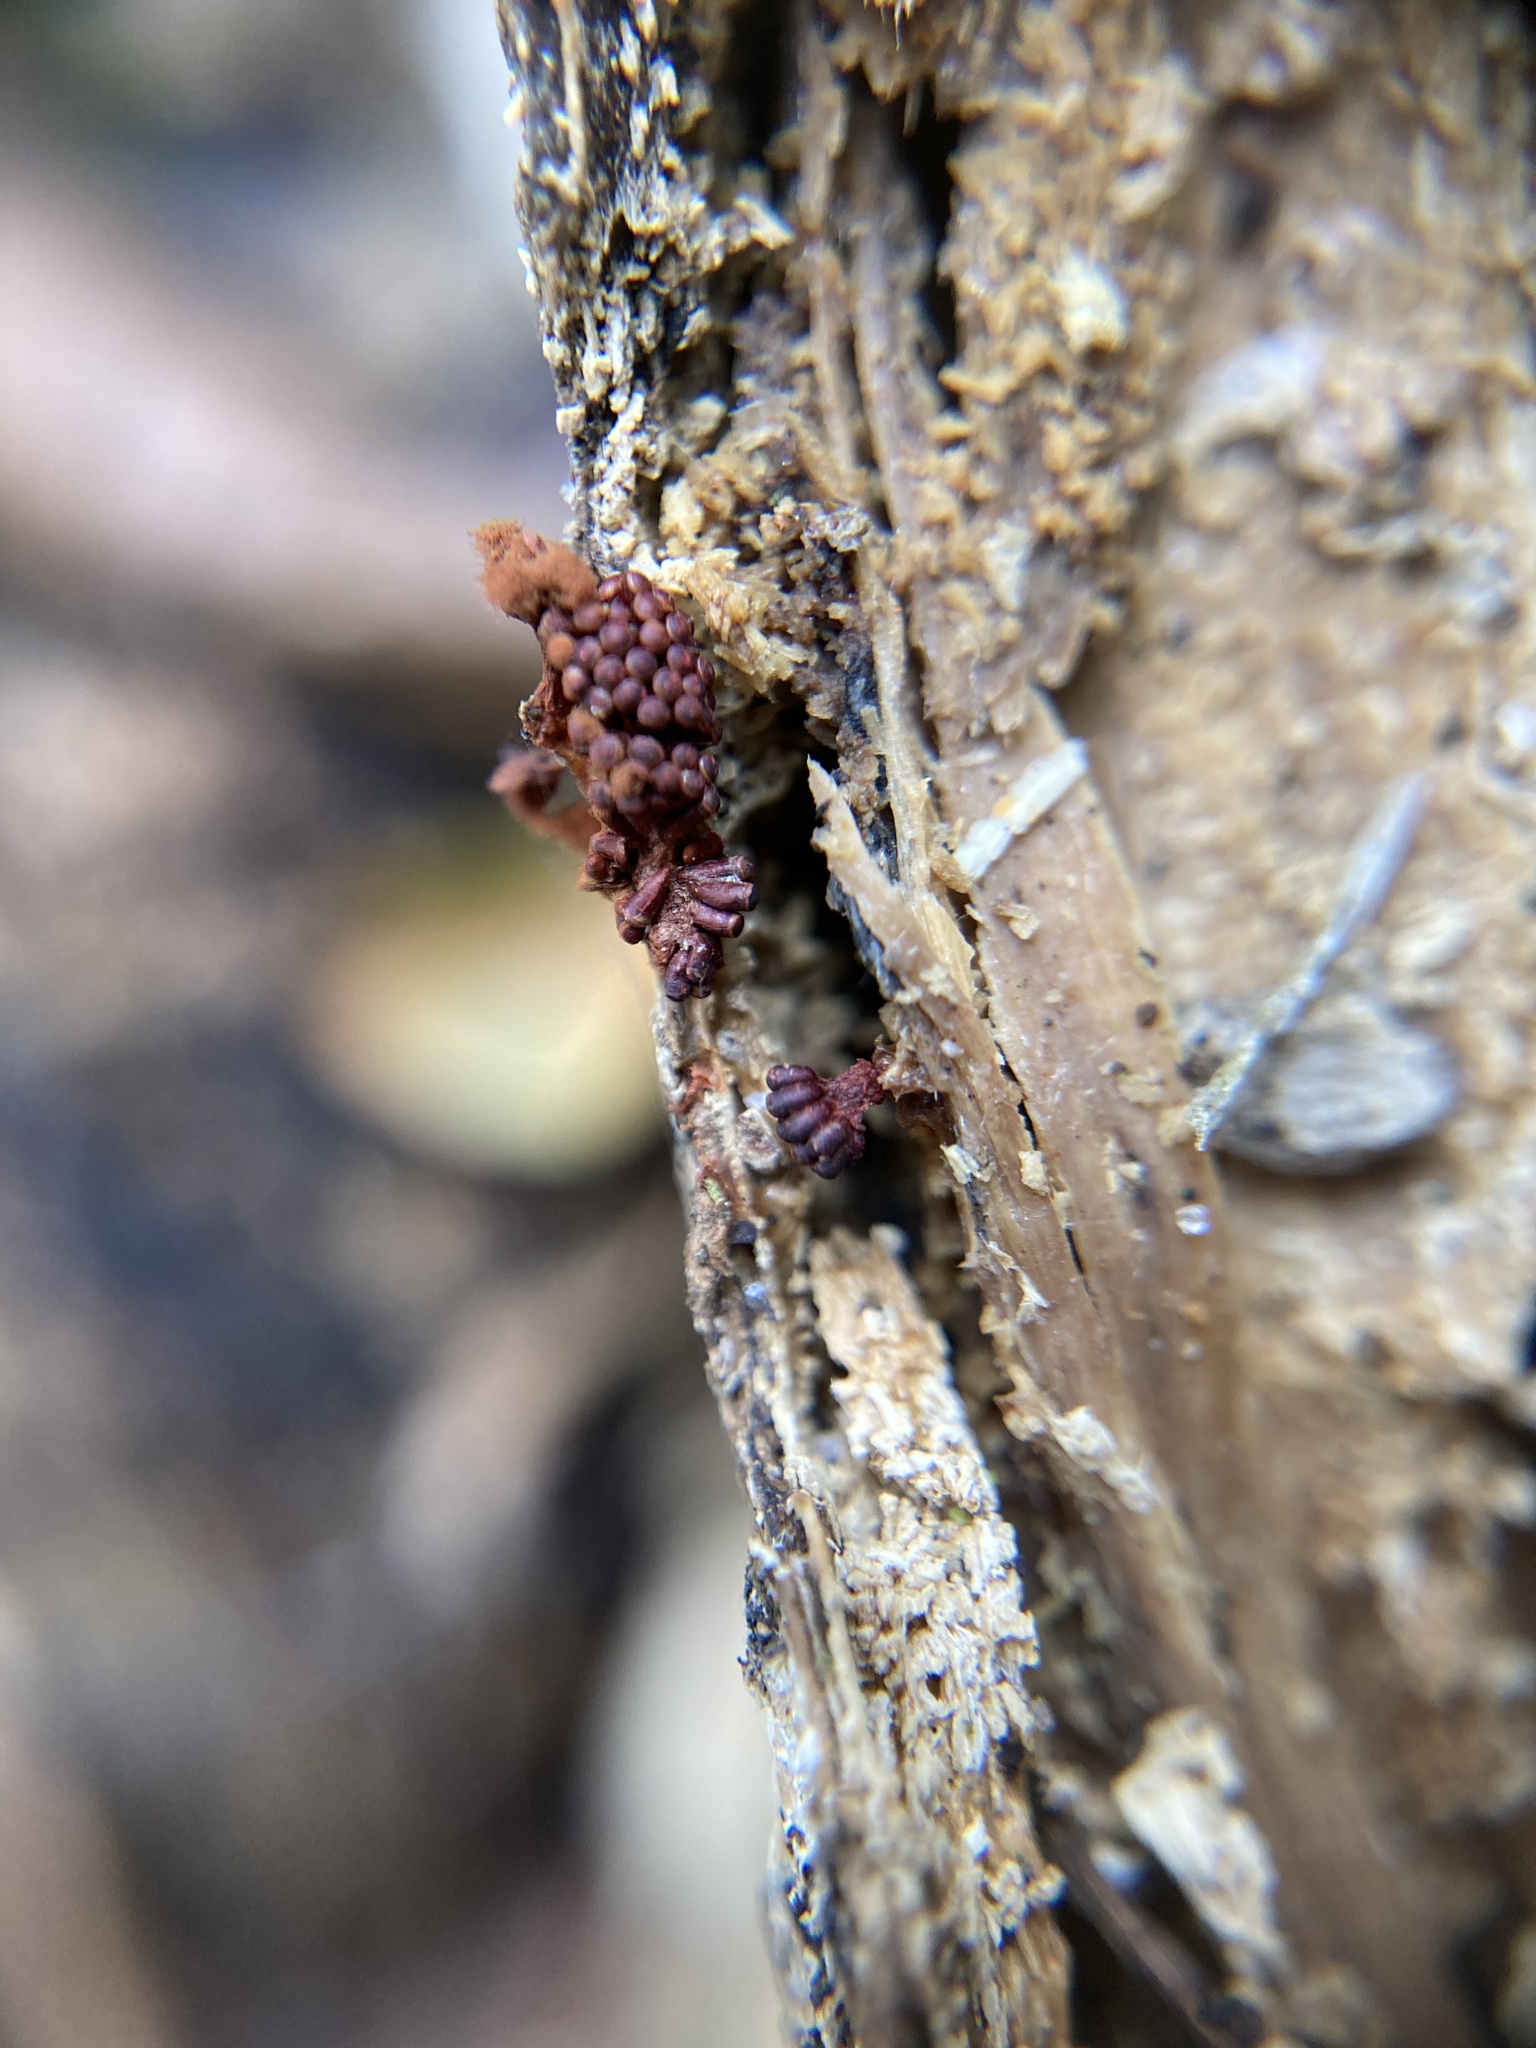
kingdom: Protozoa
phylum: Mycetozoa
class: Myxomycetes
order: Trichiales
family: Trichiaceae
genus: Metatrichia
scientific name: Metatrichia vesparia
